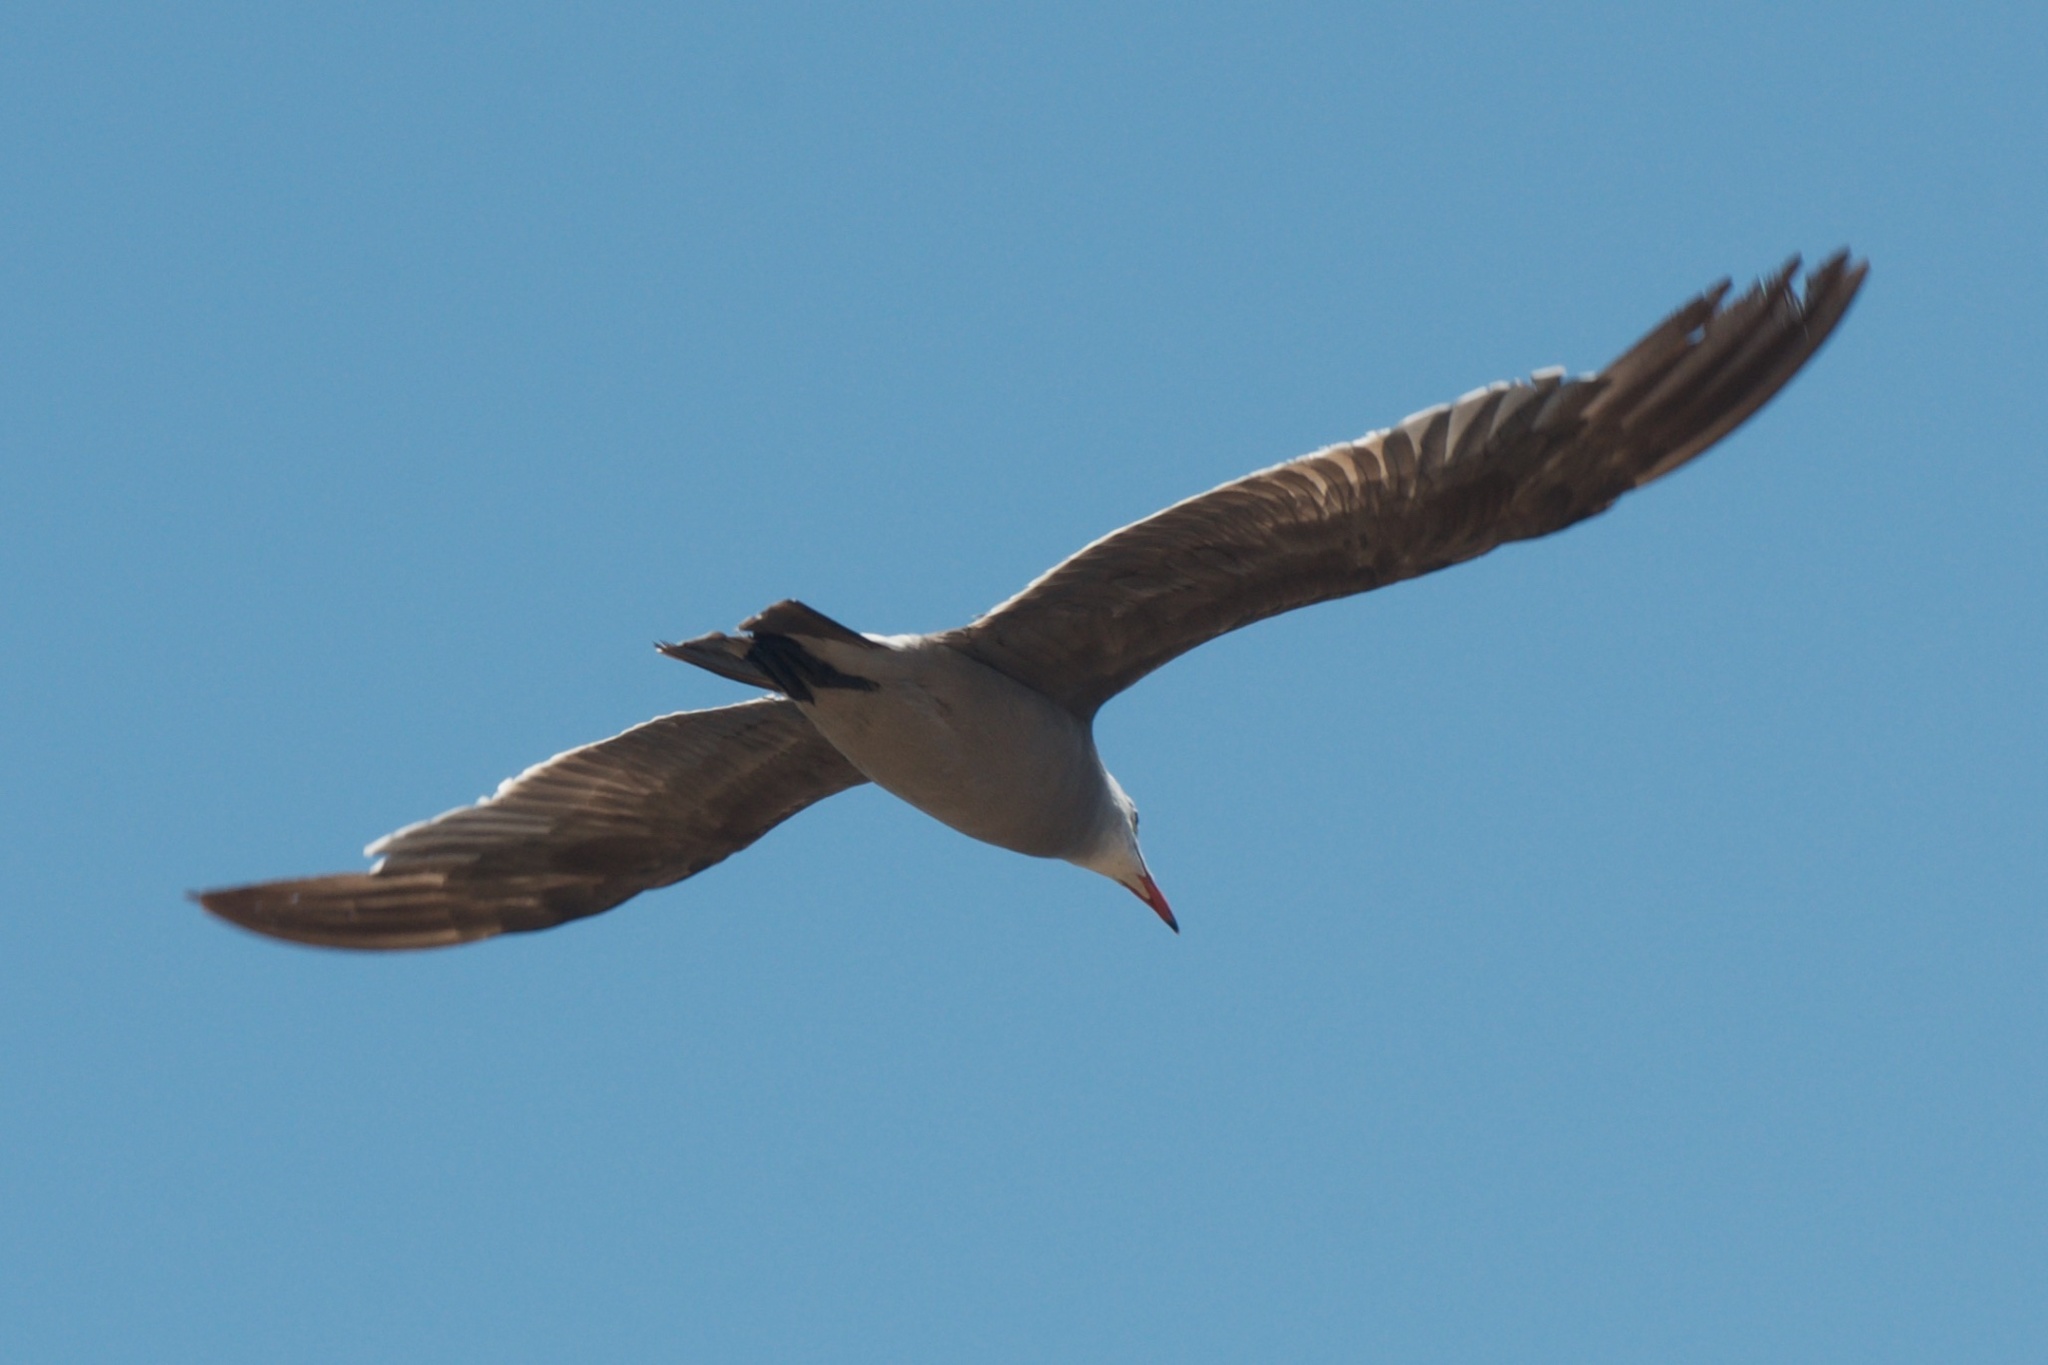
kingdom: Animalia
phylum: Chordata
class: Aves
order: Charadriiformes
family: Laridae
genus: Larus
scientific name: Larus heermanni
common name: Heermann's gull
